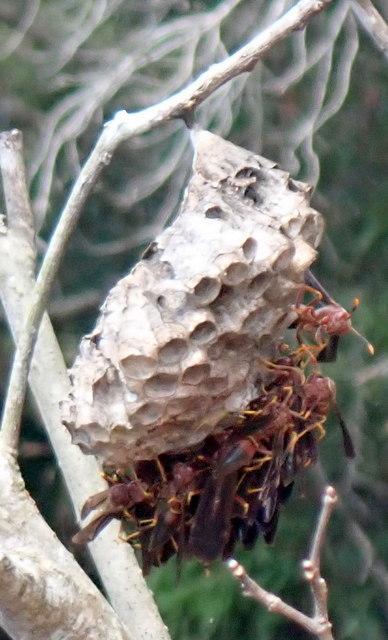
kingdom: Animalia
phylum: Arthropoda
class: Insecta
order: Hymenoptera
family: Eumenidae
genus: Polistes
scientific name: Polistes annularis
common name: Ringed paper wasp
